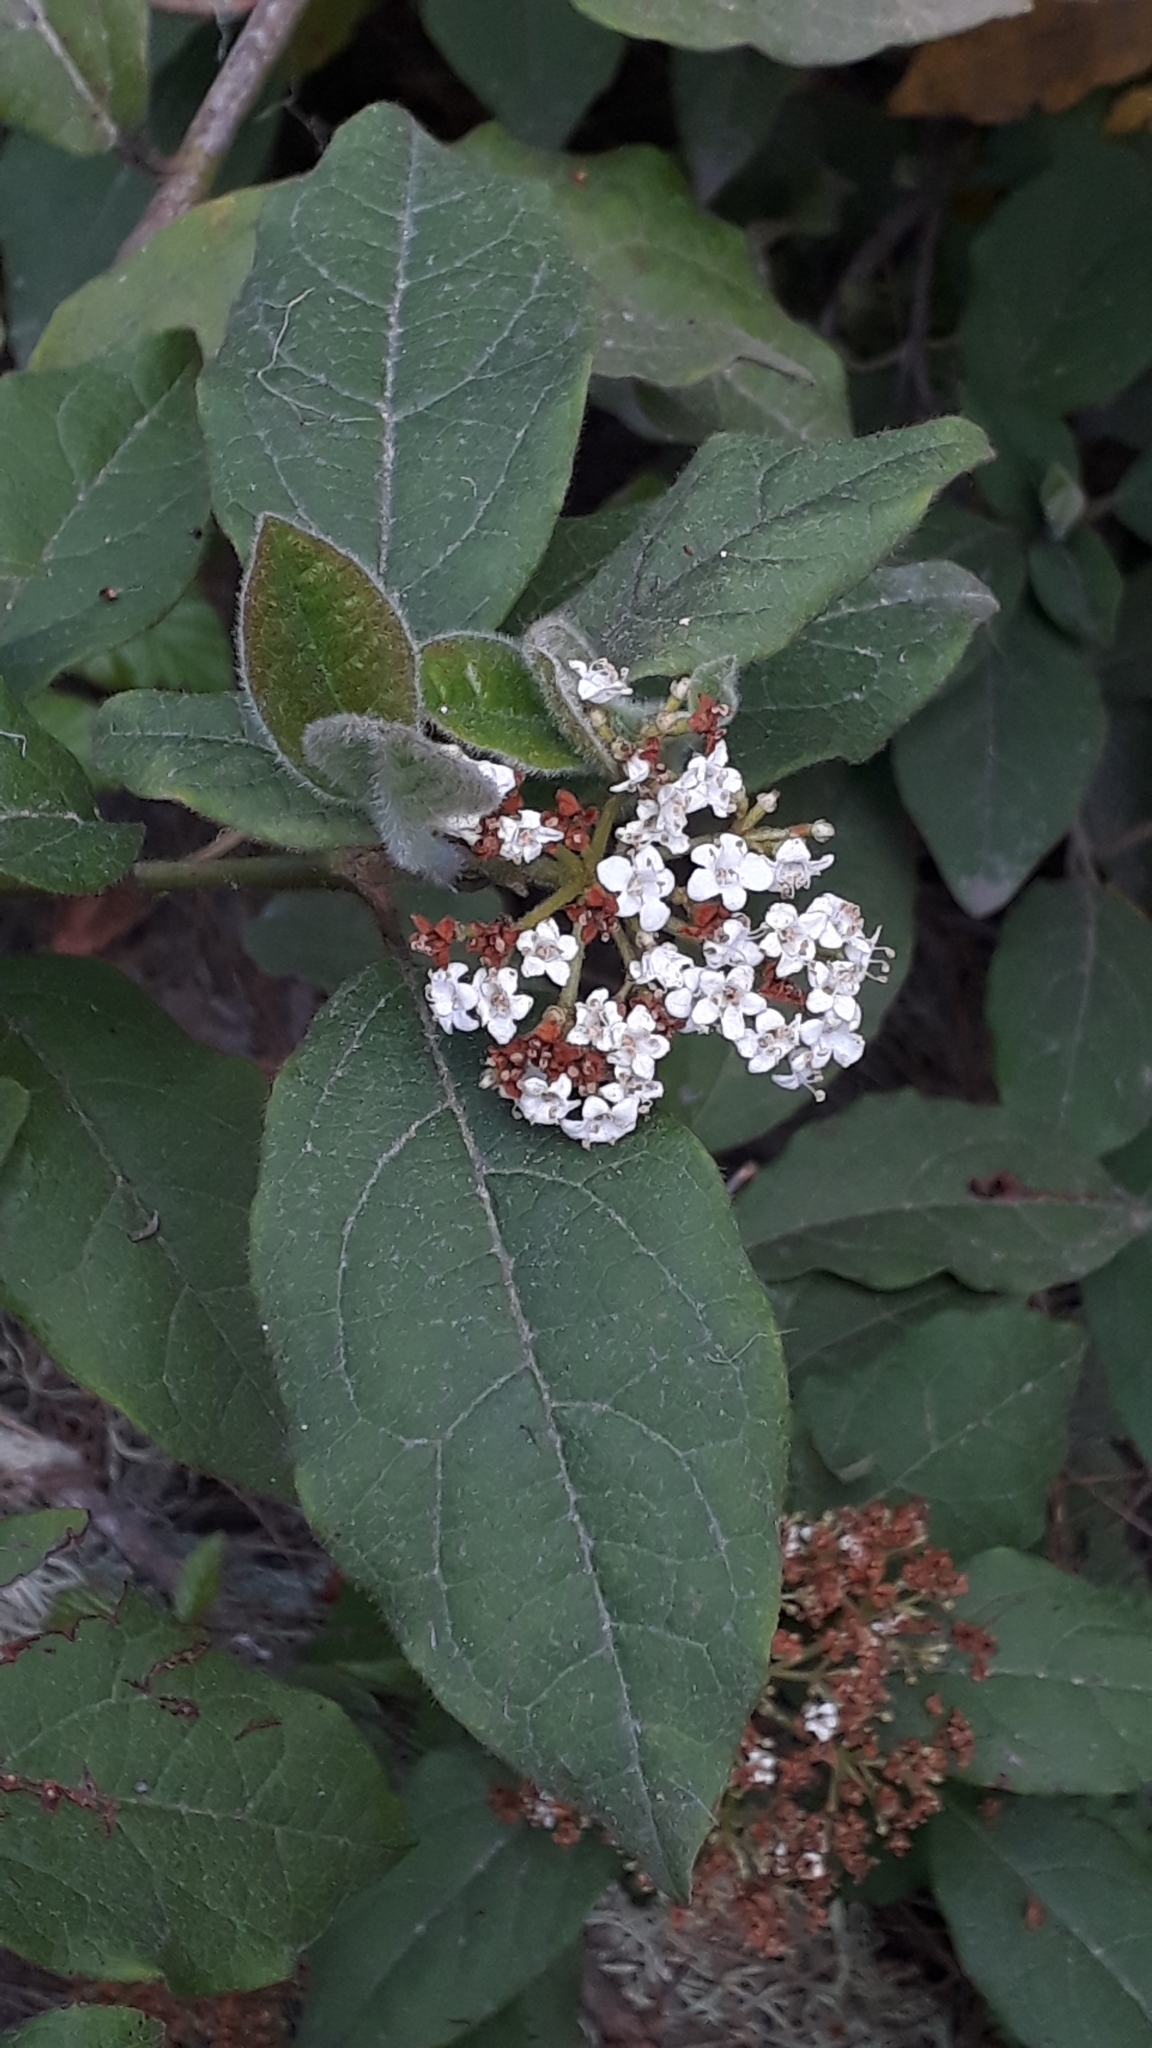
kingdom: Plantae
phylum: Tracheophyta
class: Magnoliopsida
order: Dipsacales
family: Viburnaceae
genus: Viburnum
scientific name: Viburnum rugosum
